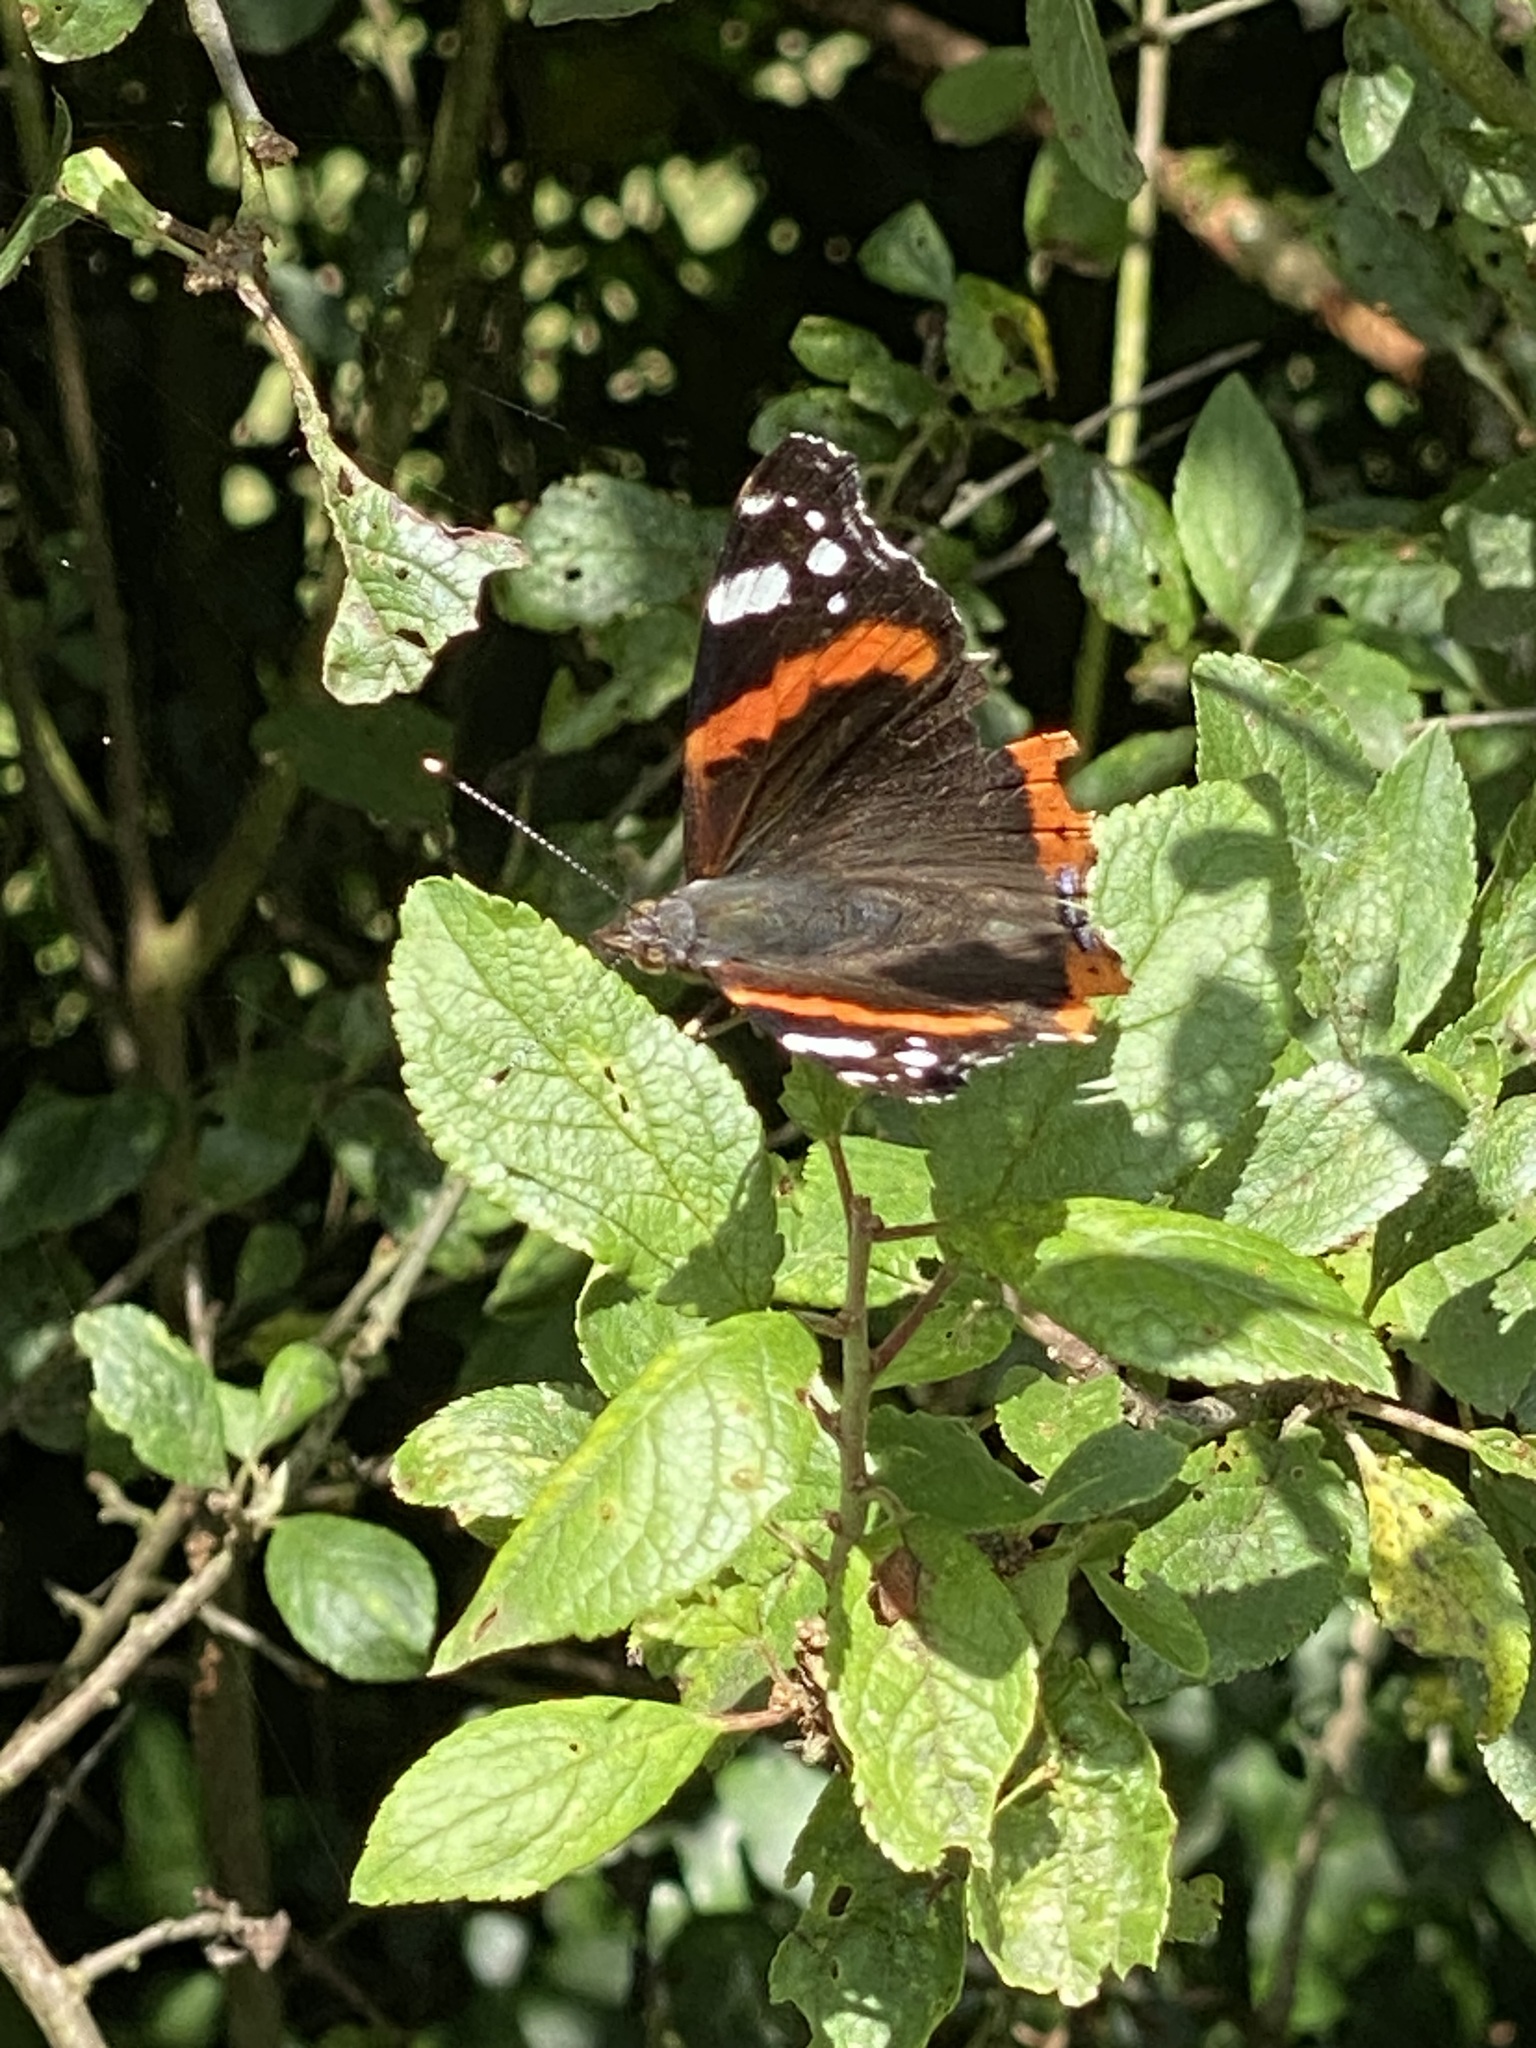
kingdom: Animalia
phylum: Arthropoda
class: Insecta
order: Lepidoptera
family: Nymphalidae
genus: Vanessa
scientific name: Vanessa atalanta
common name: Red admiral
